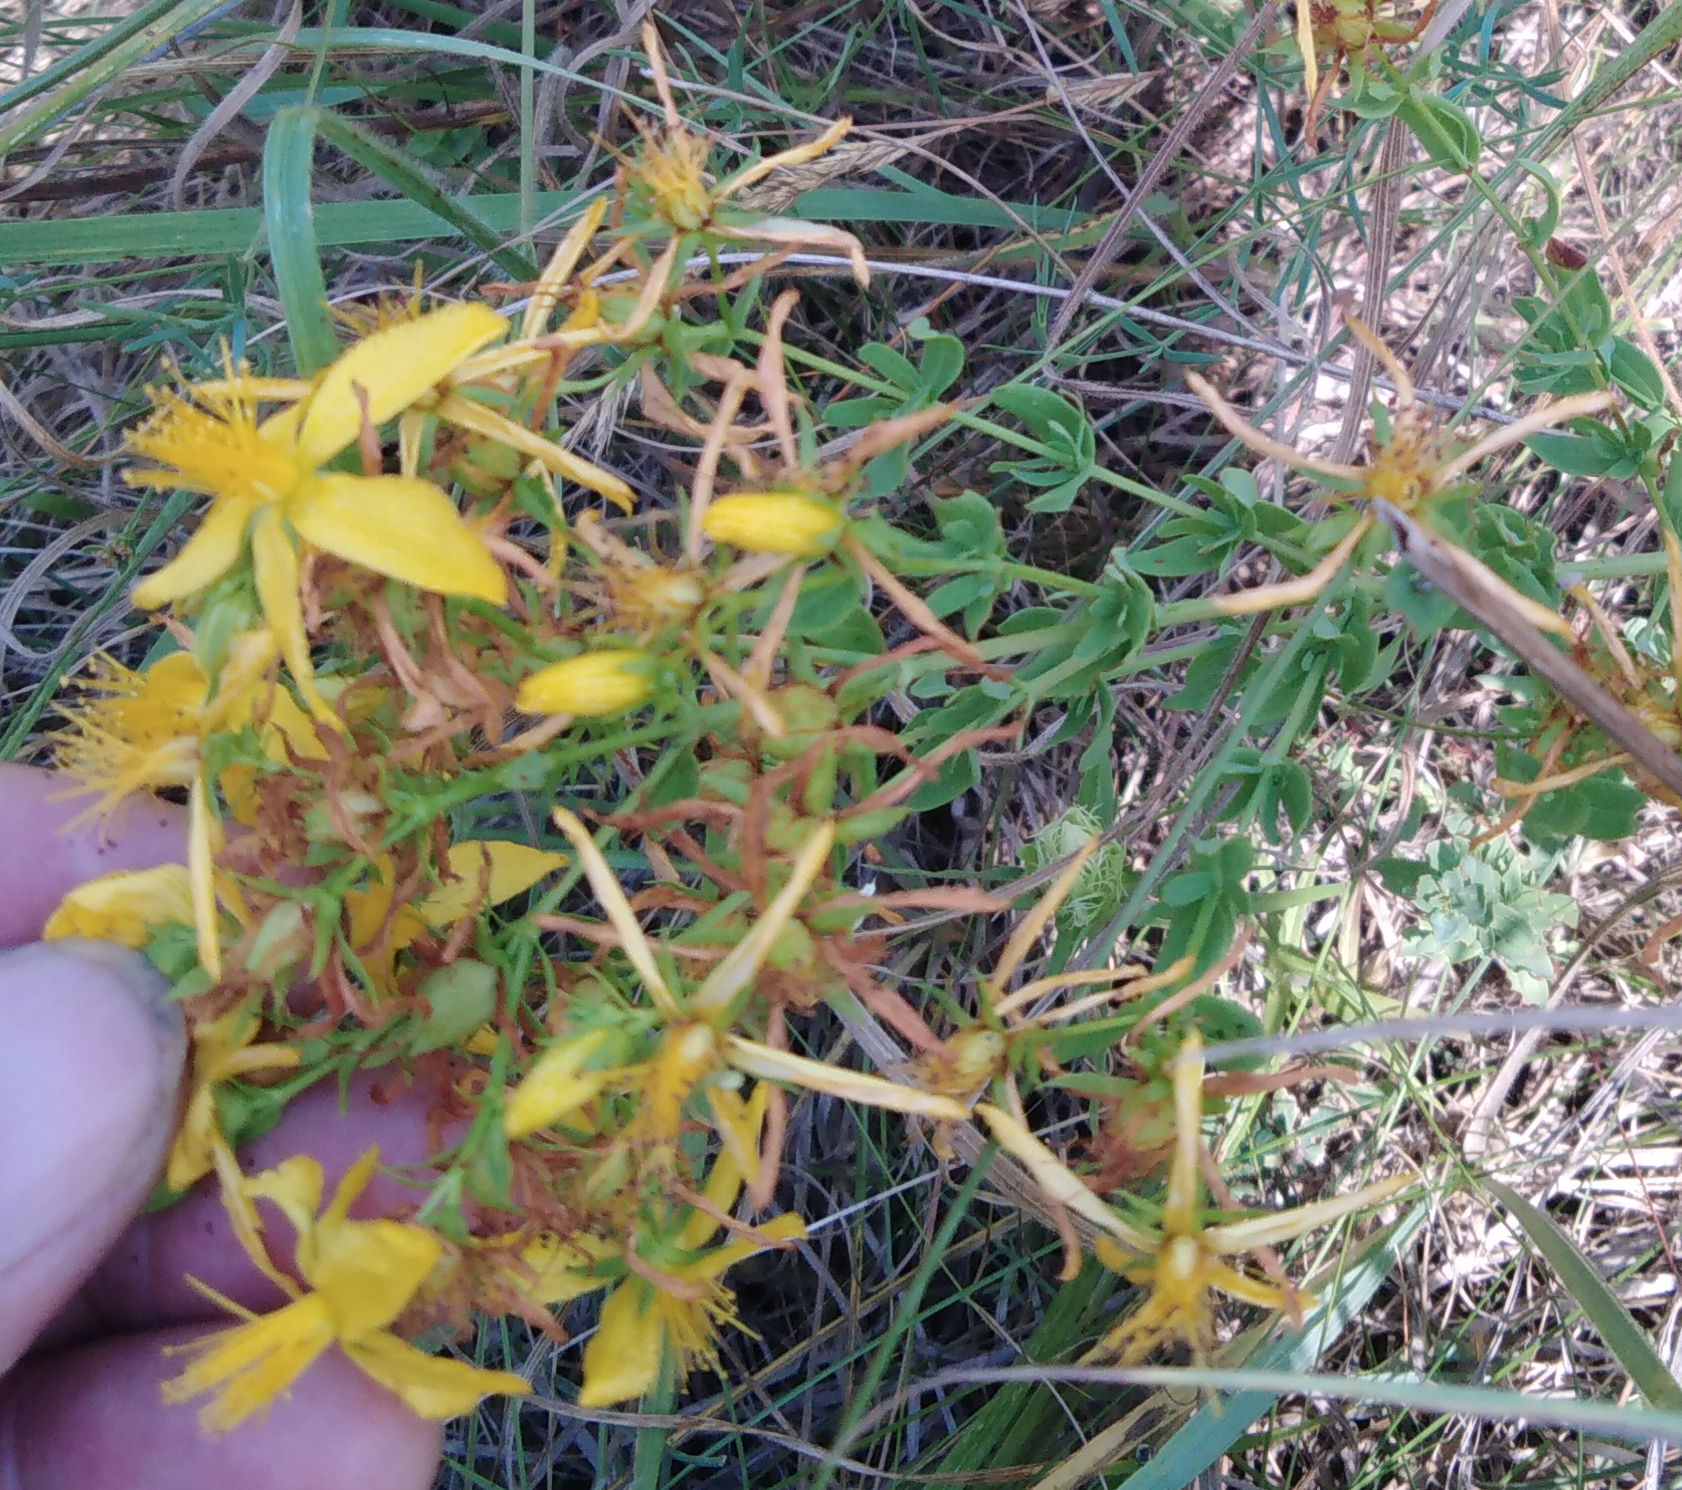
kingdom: Plantae
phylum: Tracheophyta
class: Magnoliopsida
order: Malpighiales
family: Hypericaceae
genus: Hypericum
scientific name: Hypericum perforatum
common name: Common st. johnswort
